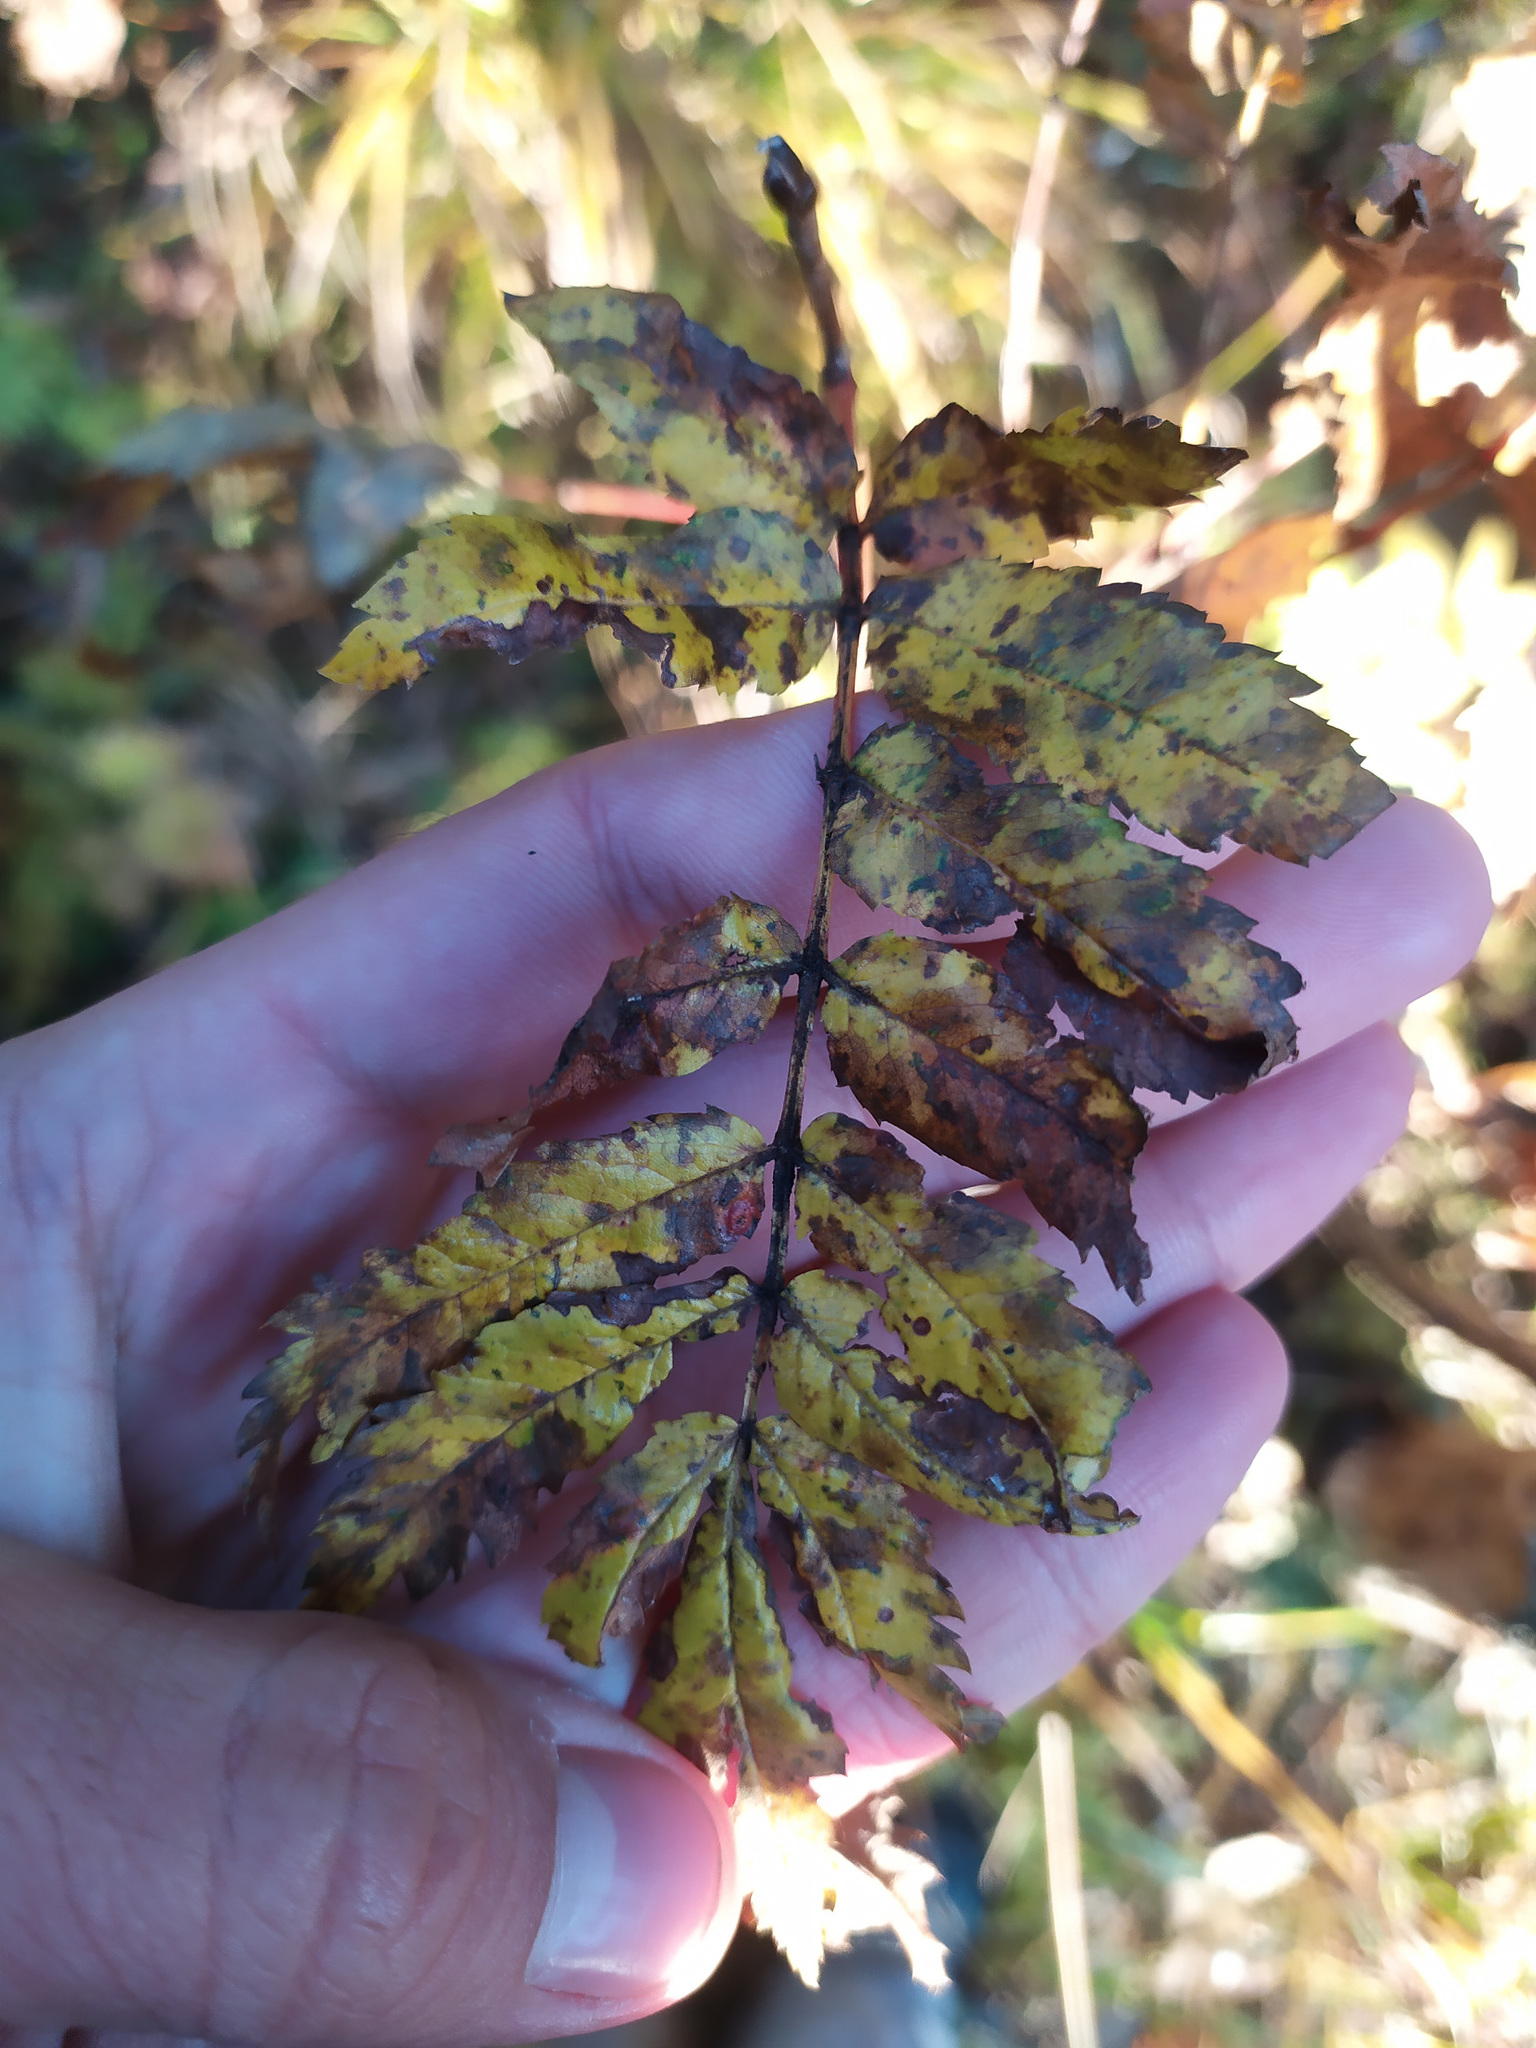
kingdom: Plantae
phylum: Tracheophyta
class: Magnoliopsida
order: Rosales
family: Rosaceae
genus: Sorbus
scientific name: Sorbus aucuparia
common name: Rowan
